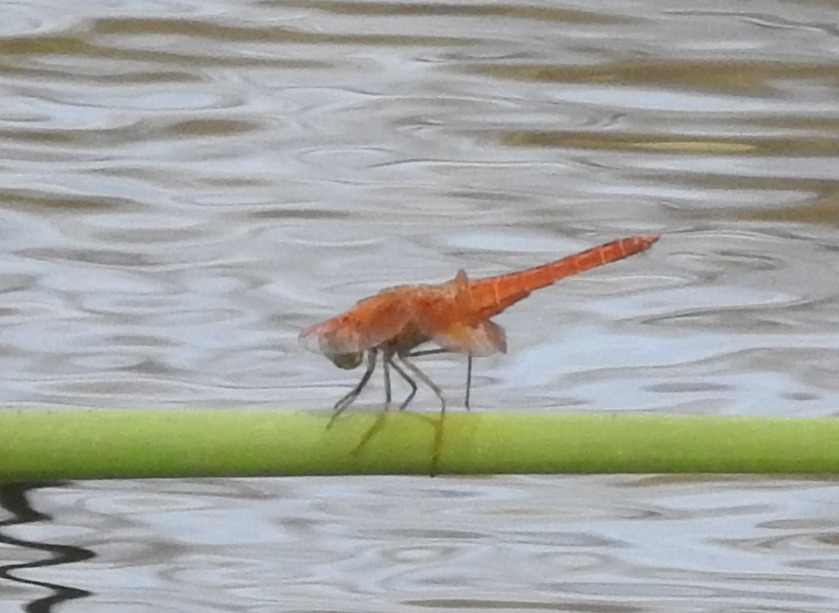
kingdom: Animalia
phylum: Arthropoda
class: Insecta
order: Odonata
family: Libellulidae
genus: Brachythemis
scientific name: Brachythemis contaminata
